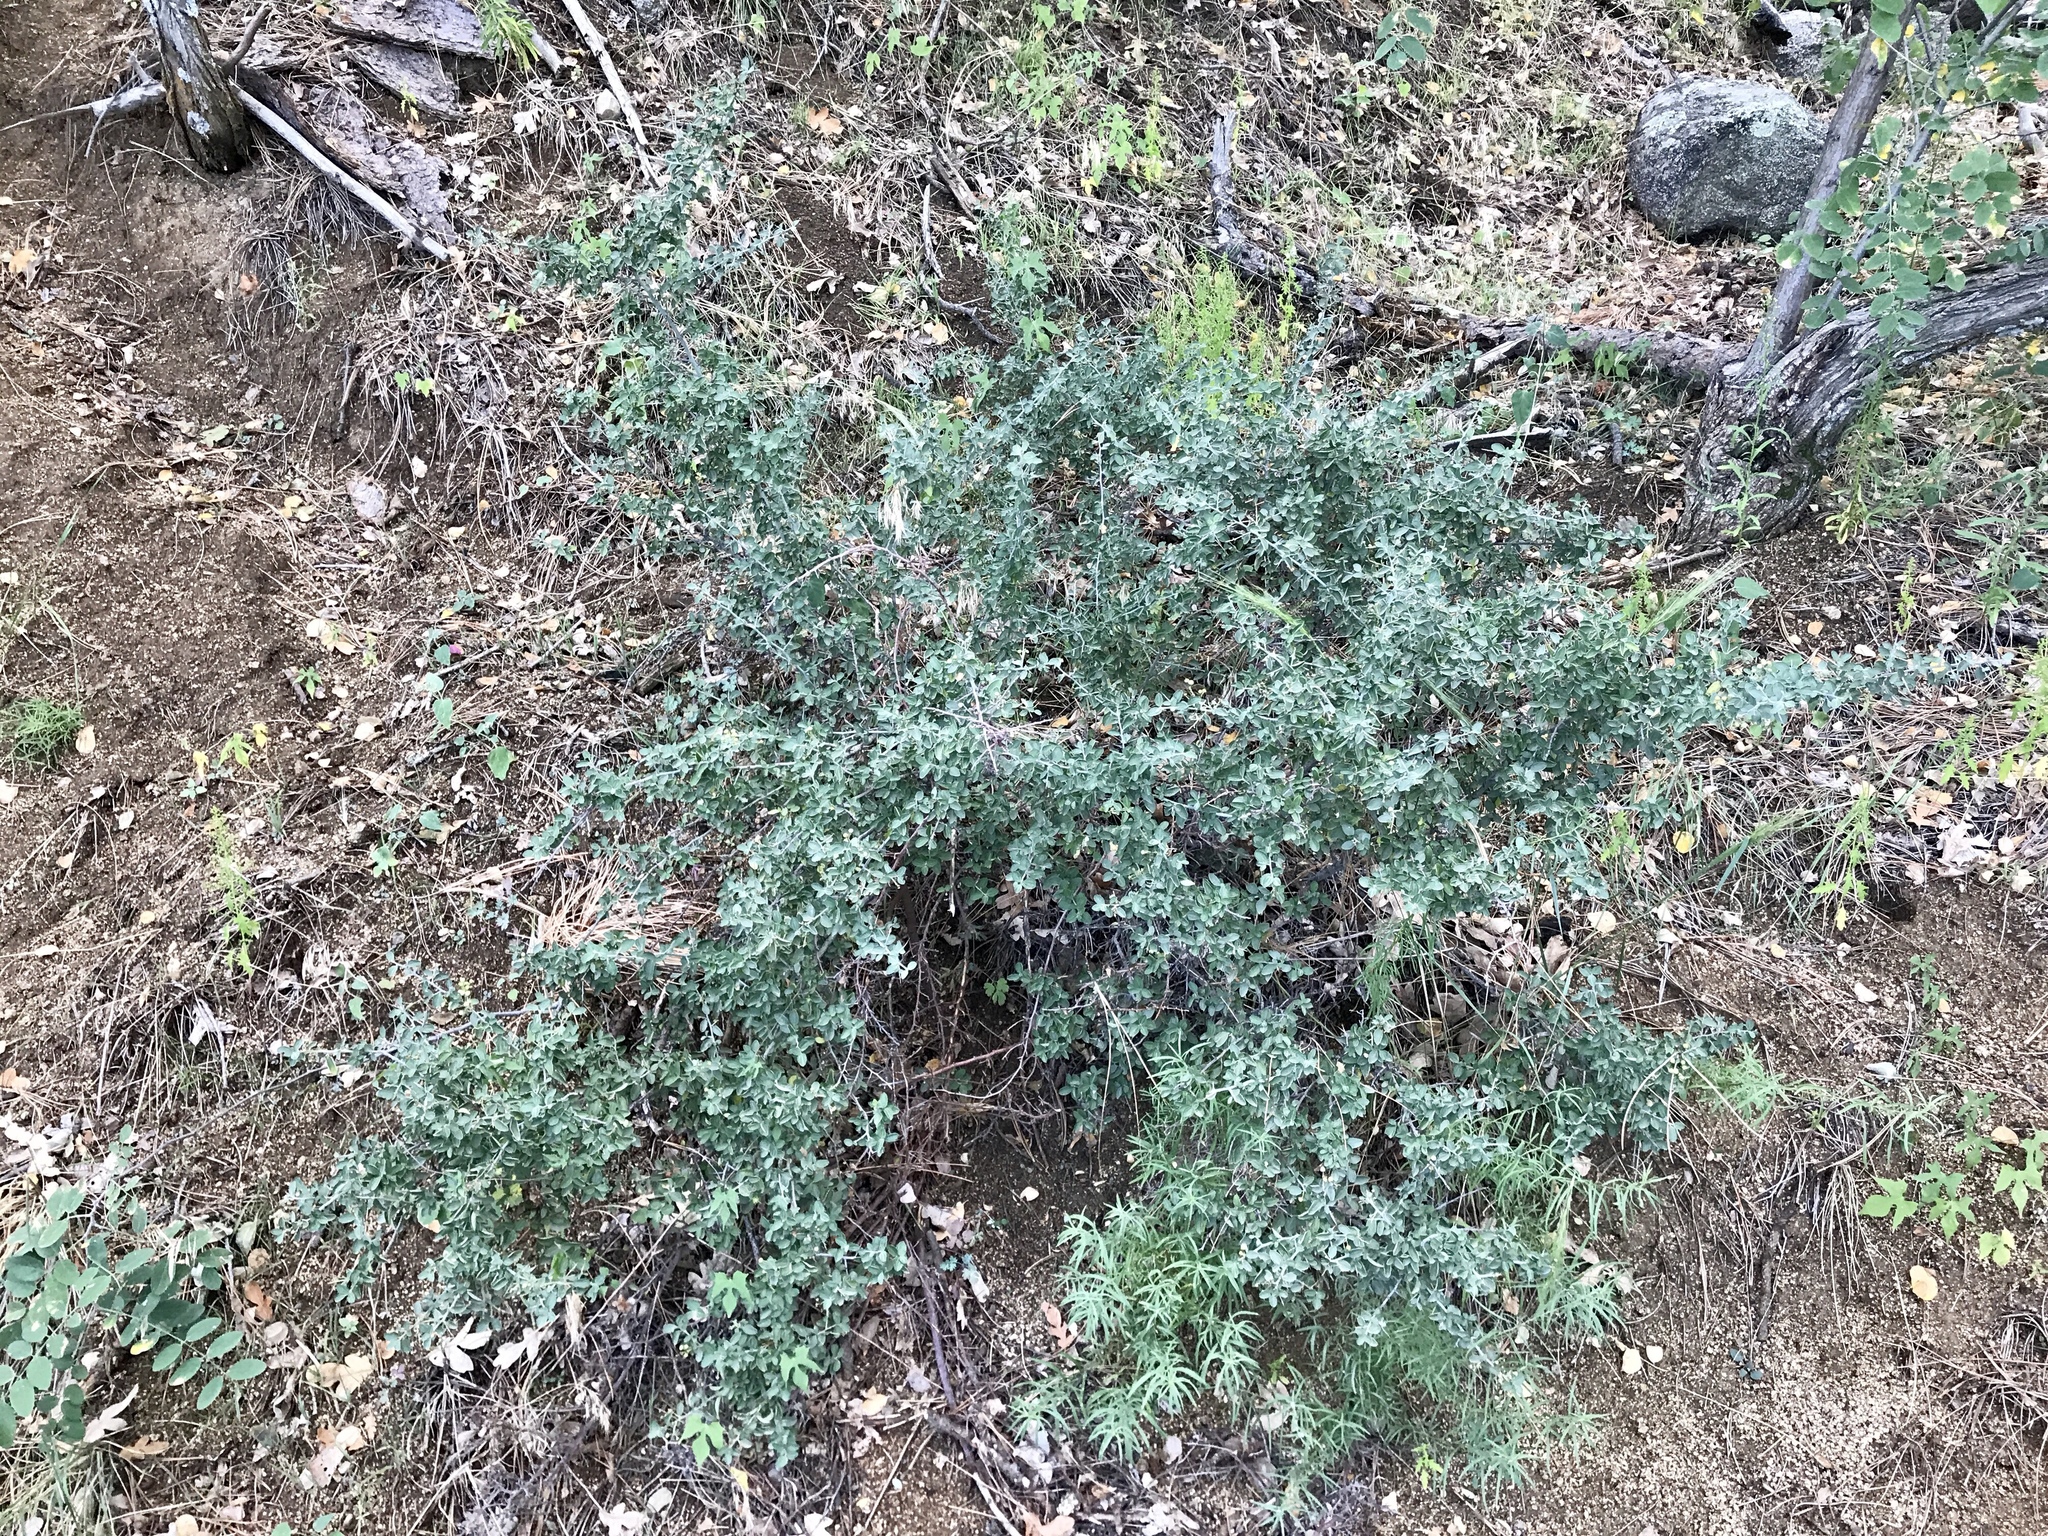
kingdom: Plantae
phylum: Tracheophyta
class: Magnoliopsida
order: Rosales
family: Rhamnaceae
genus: Ceanothus
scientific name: Ceanothus fendleri
